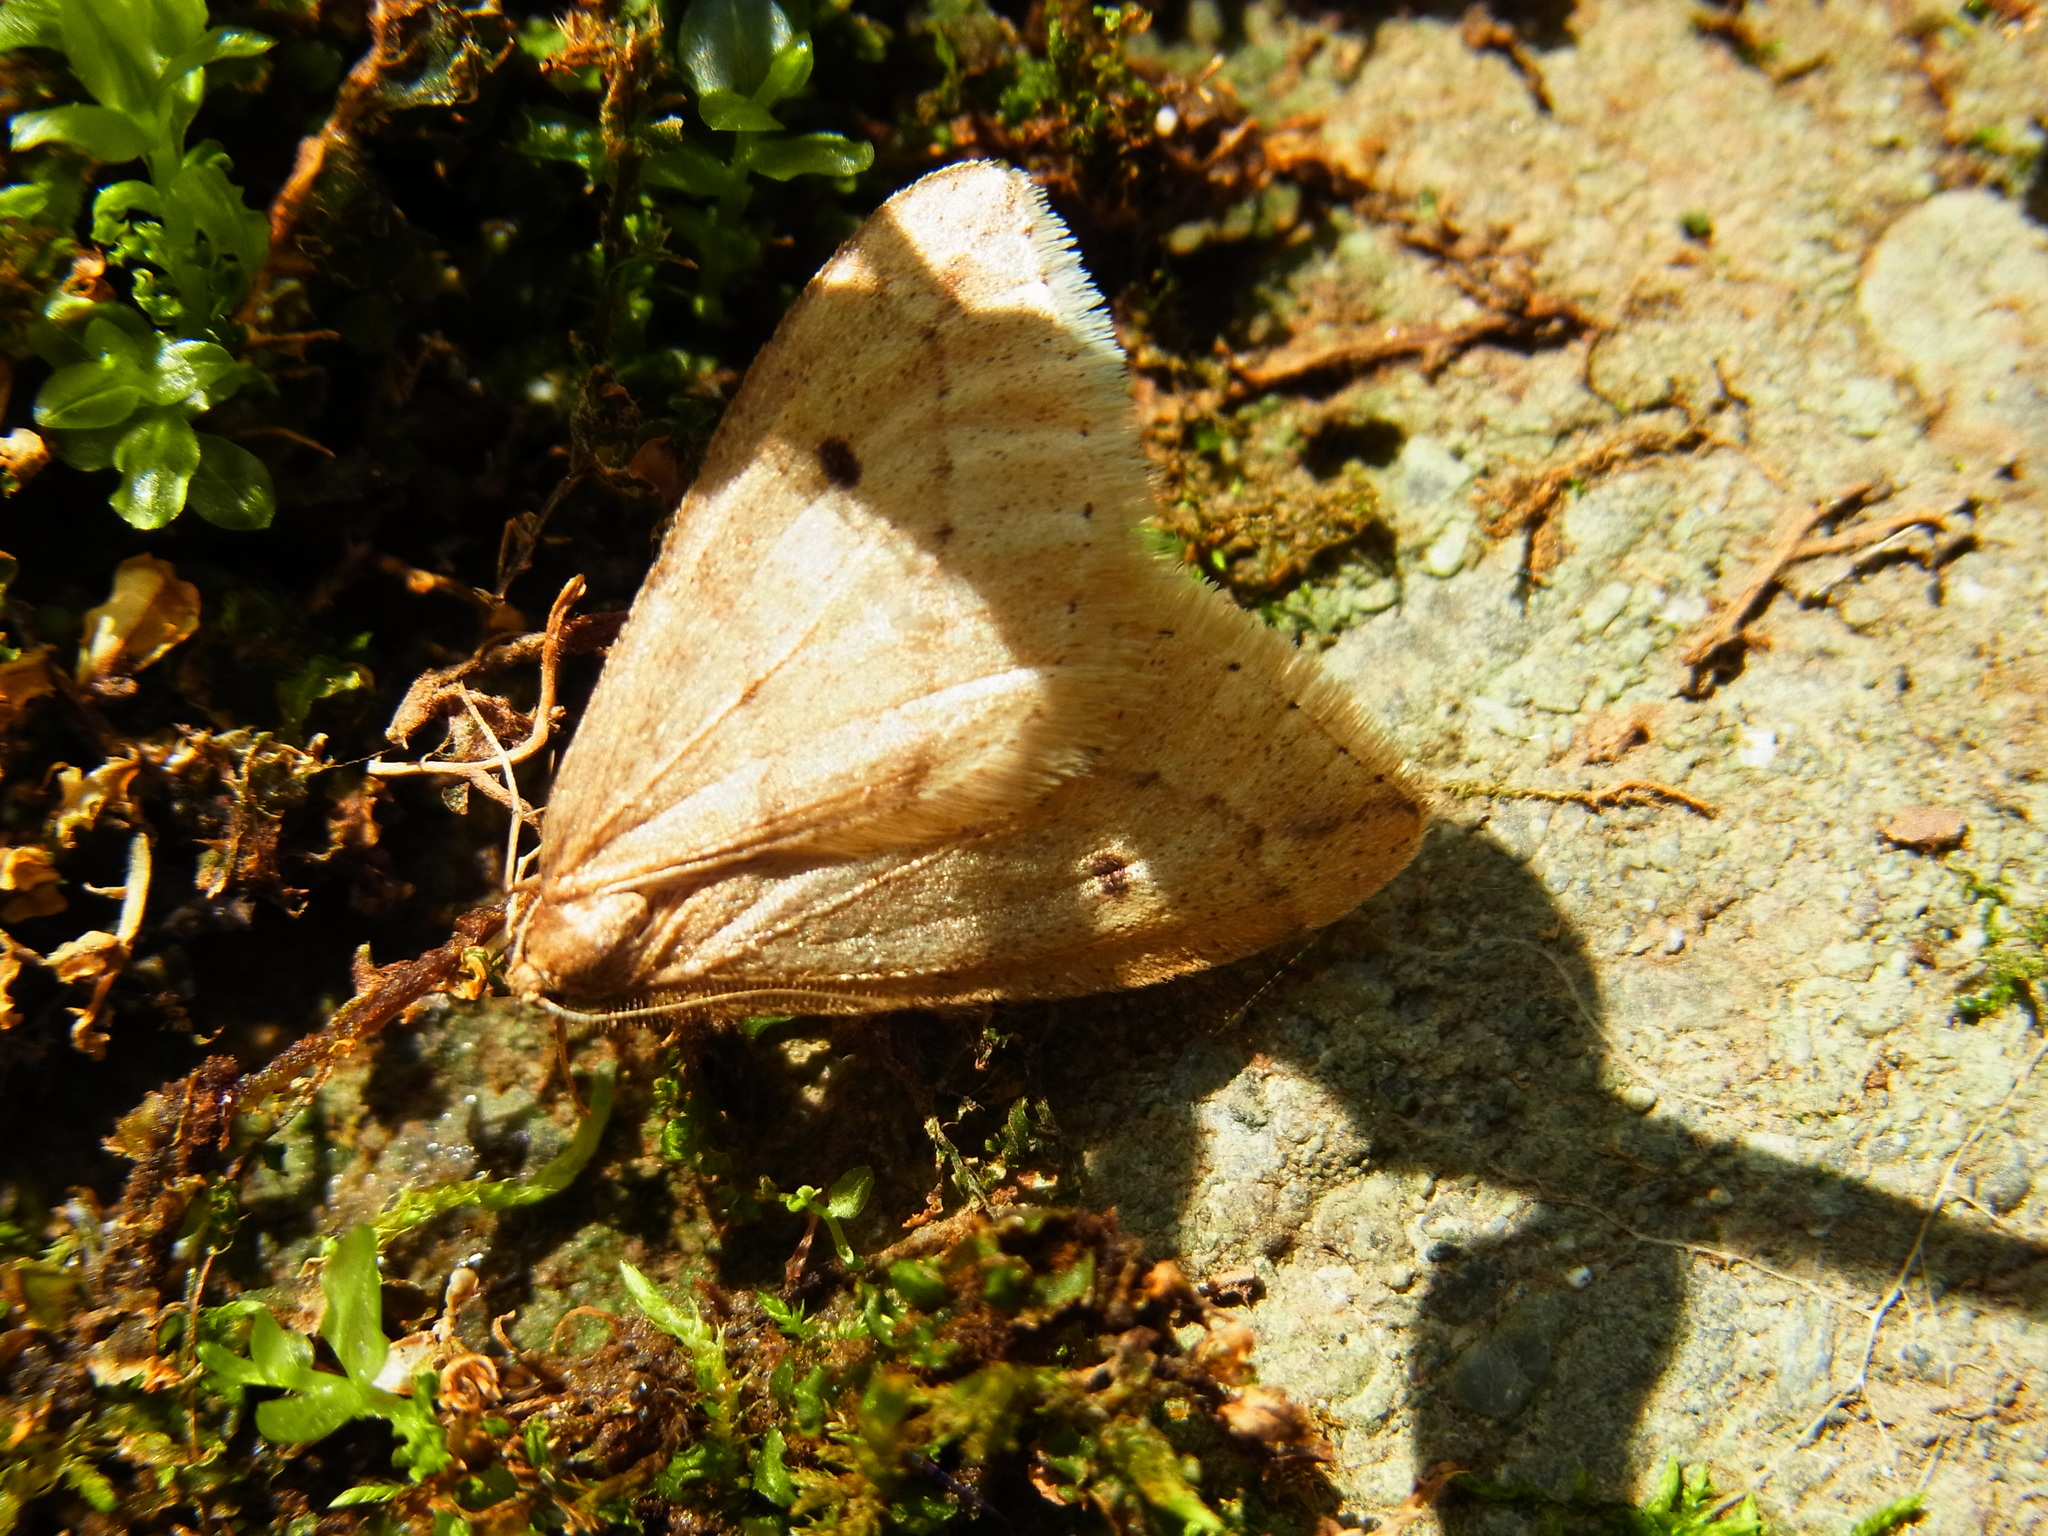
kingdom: Animalia
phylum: Arthropoda
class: Insecta
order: Lepidoptera
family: Geometridae
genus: Inurois
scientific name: Inurois membranaria
